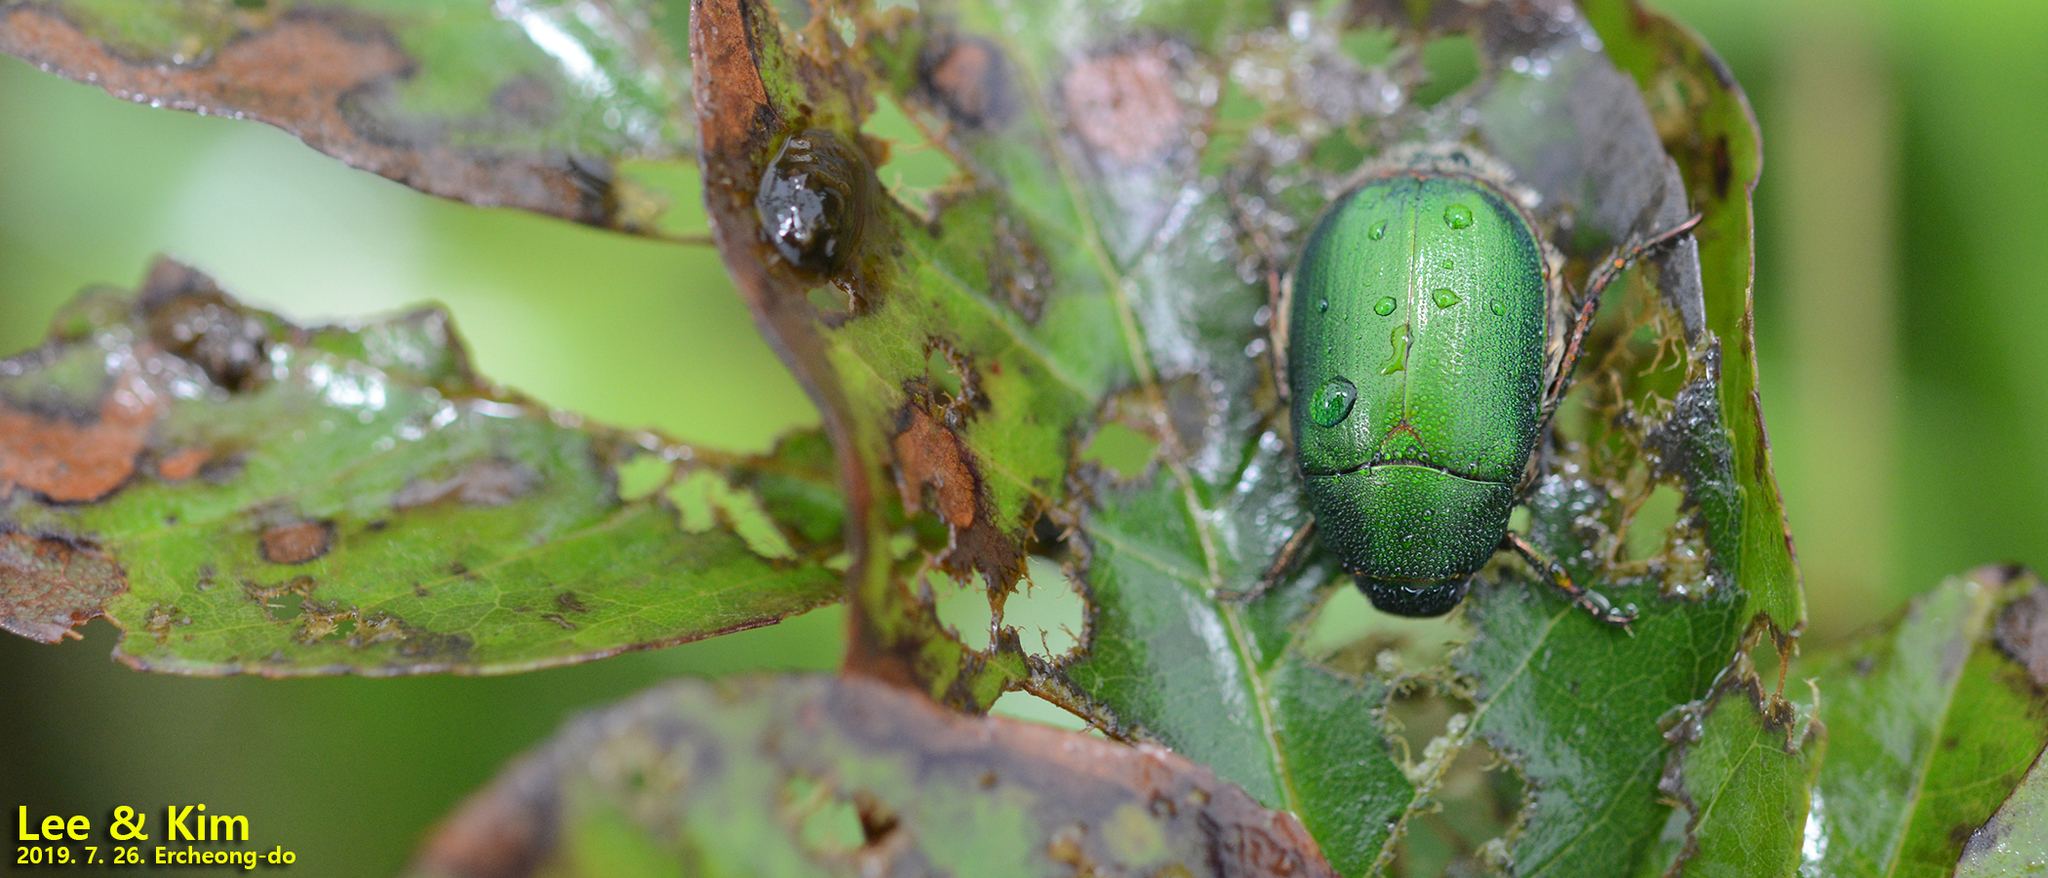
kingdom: Animalia
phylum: Arthropoda
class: Insecta
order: Coleoptera
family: Scarabaeidae
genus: Anomala
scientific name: Anomala albopilosa
